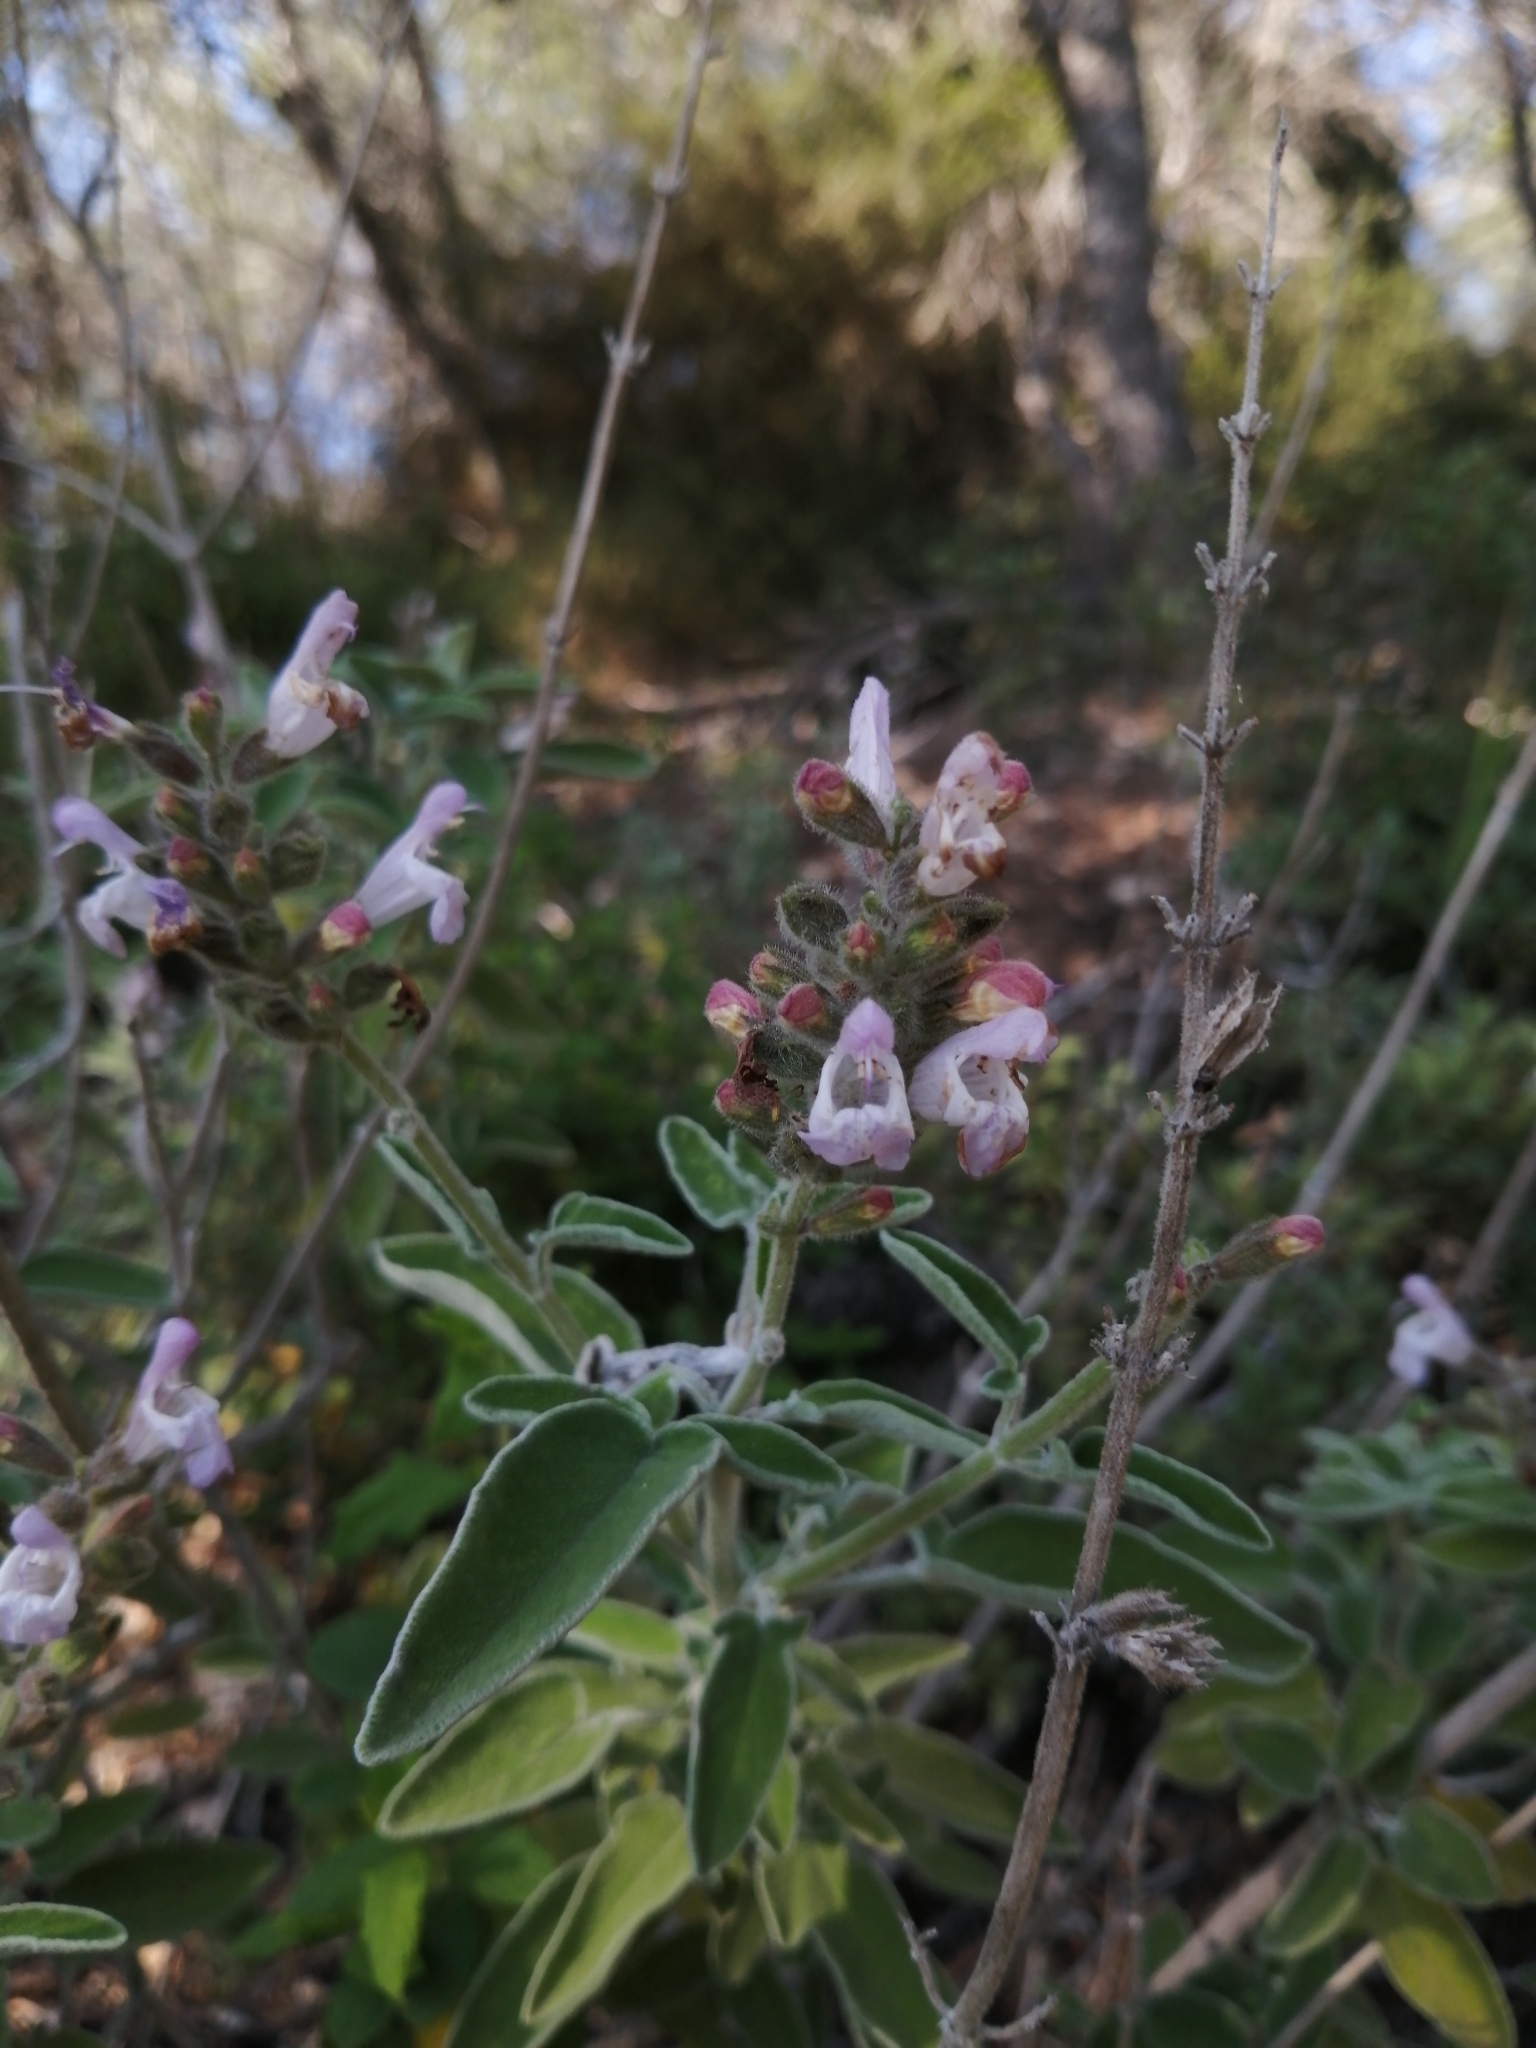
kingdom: Plantae
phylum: Tracheophyta
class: Magnoliopsida
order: Lamiales
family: Lamiaceae
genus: Salvia
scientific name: Salvia fruticosa
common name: Greek sage
